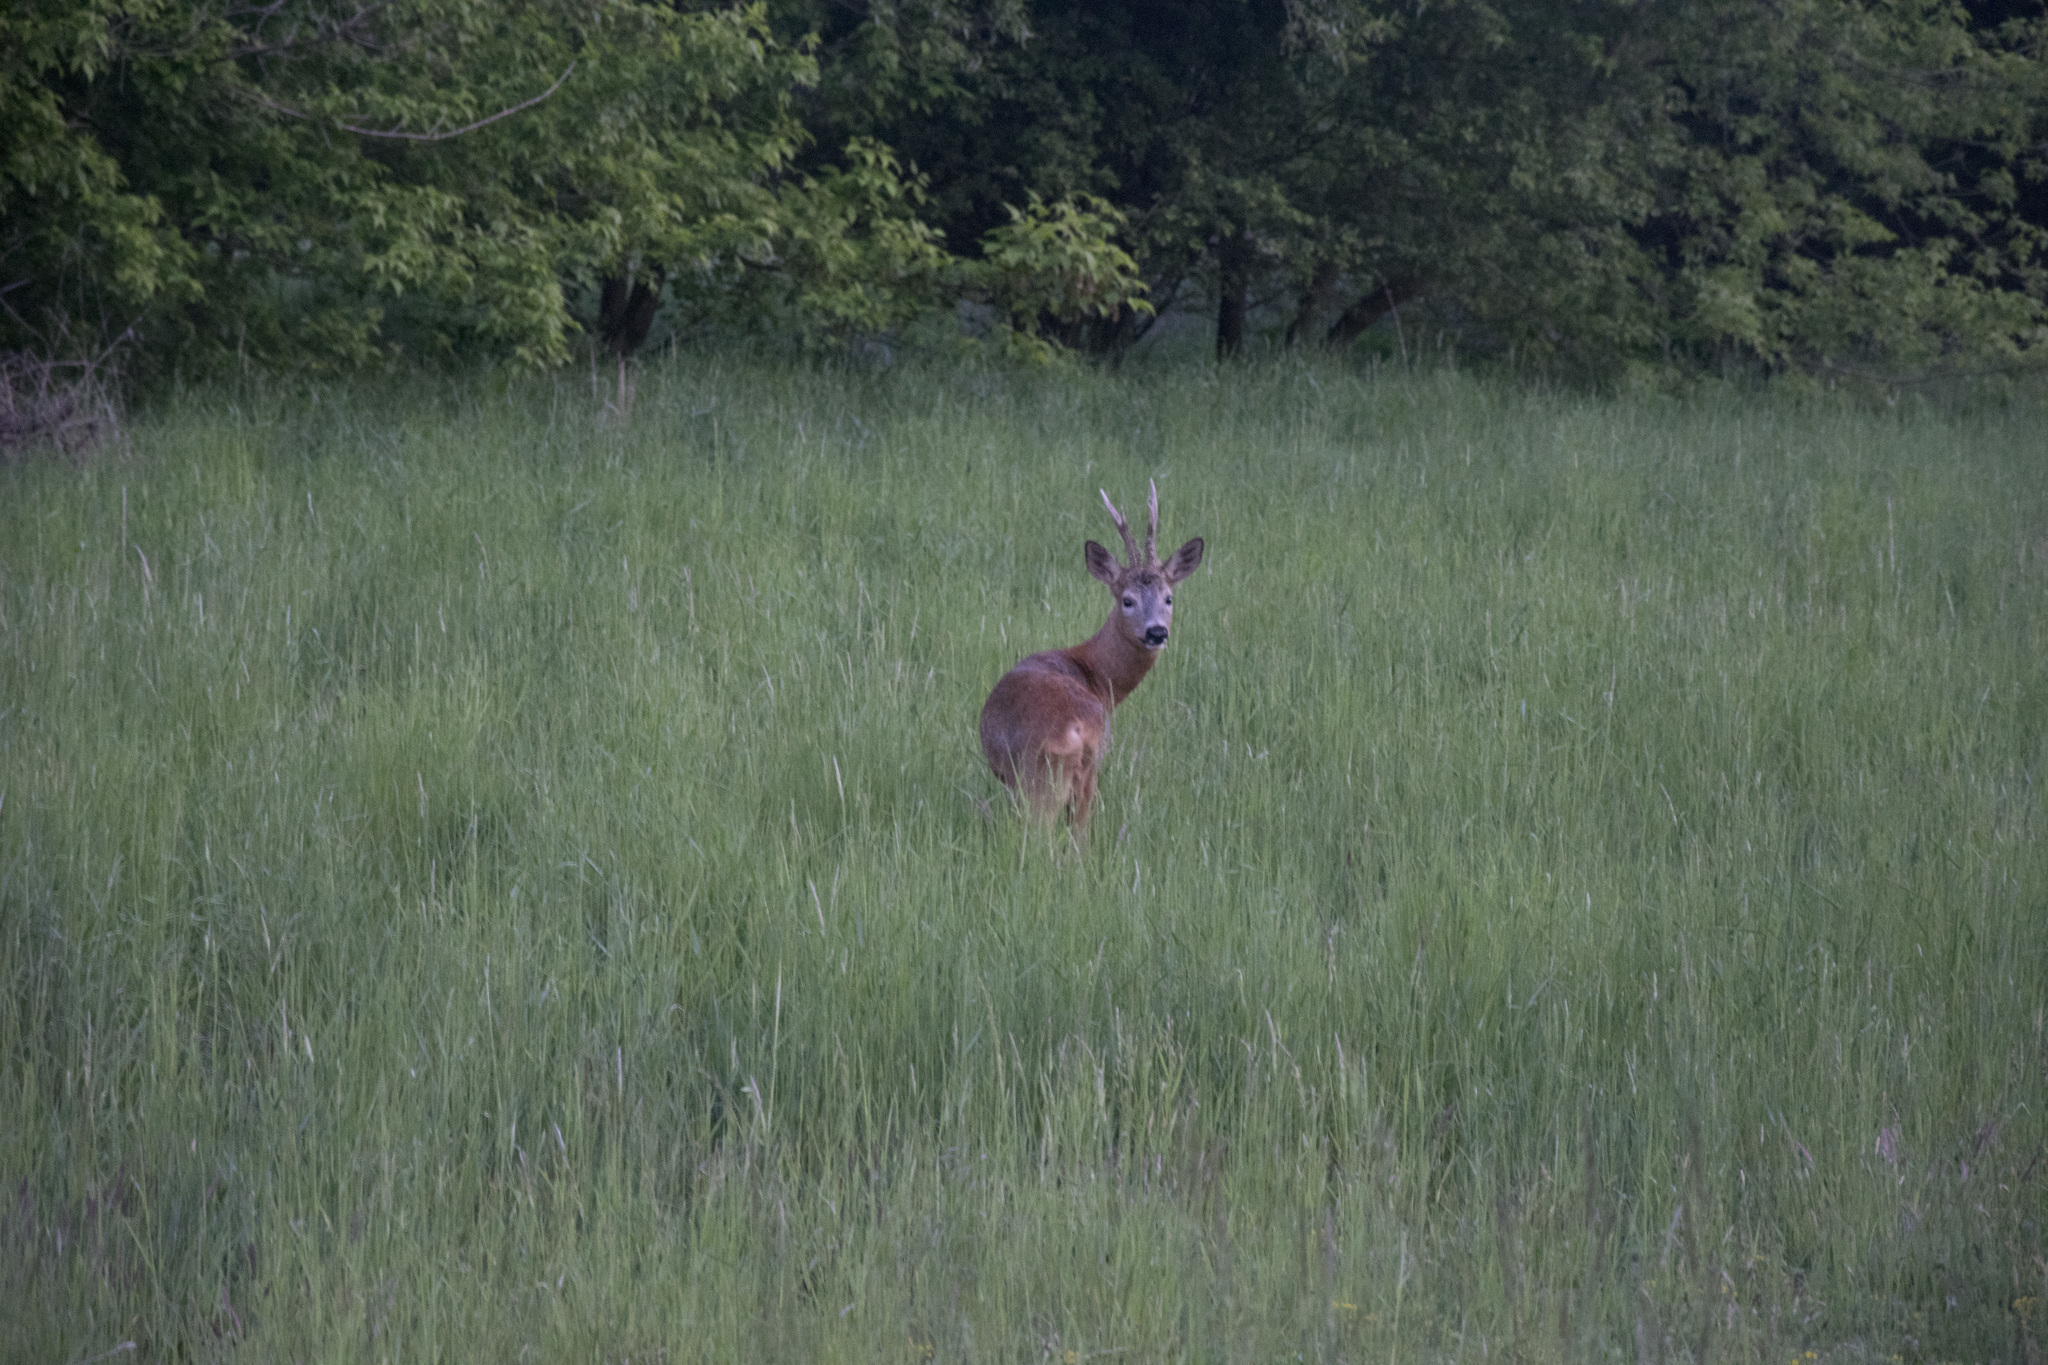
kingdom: Animalia
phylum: Chordata
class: Mammalia
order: Artiodactyla
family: Cervidae
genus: Capreolus
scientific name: Capreolus capreolus
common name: Western roe deer
